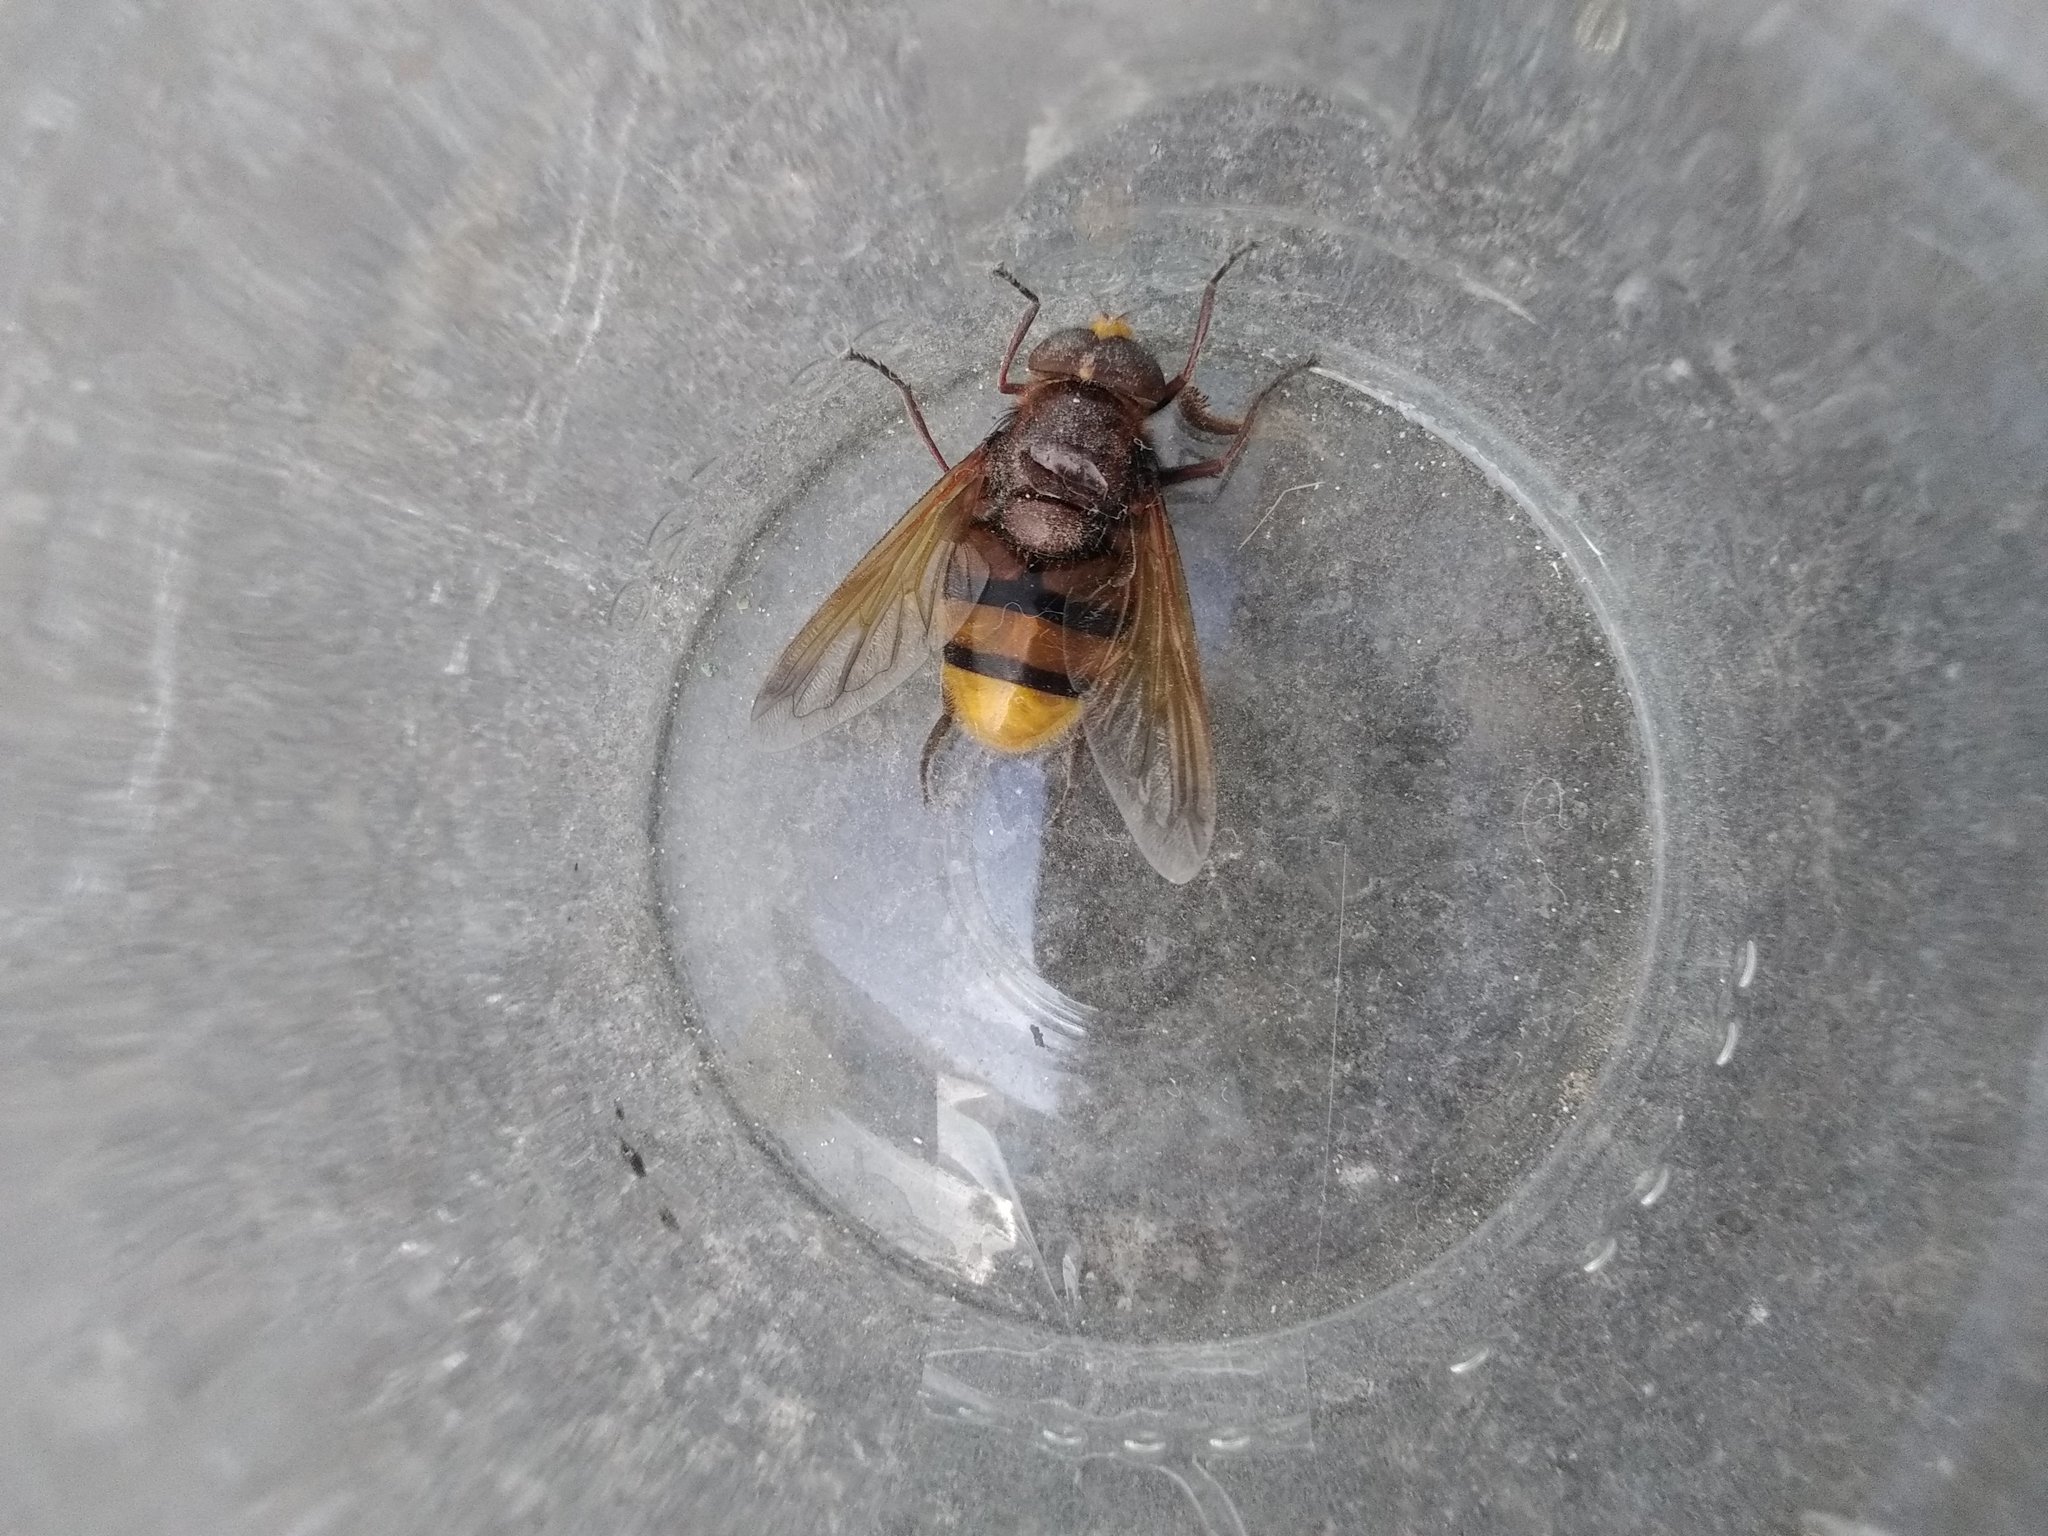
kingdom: Animalia
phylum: Arthropoda
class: Insecta
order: Diptera
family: Syrphidae
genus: Volucella
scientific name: Volucella zonaria
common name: Hornet hoverfly
